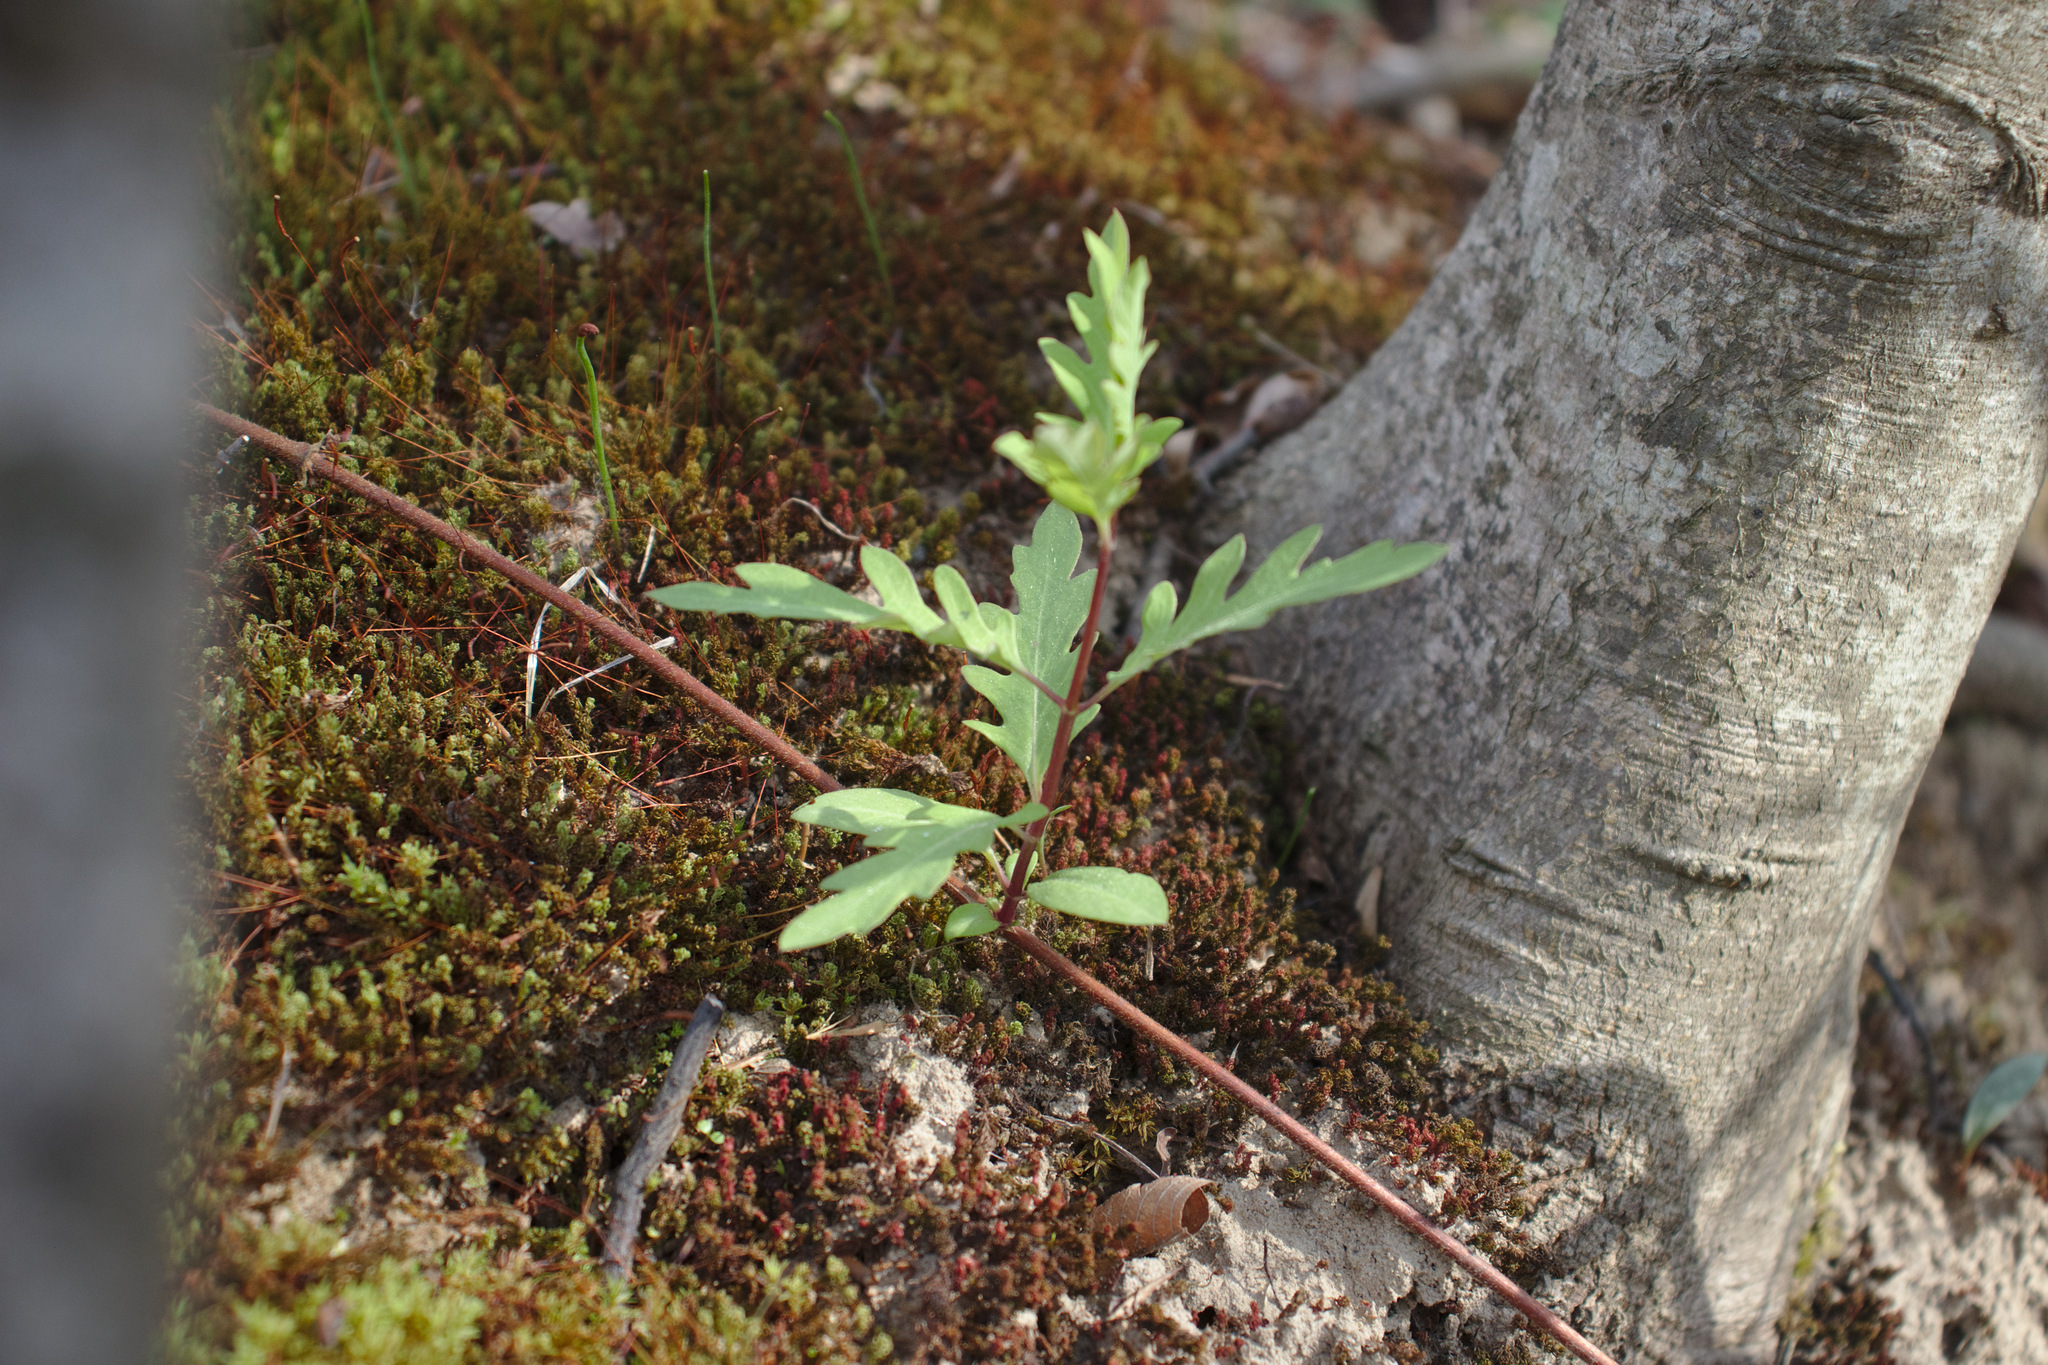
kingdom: Plantae
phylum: Tracheophyta
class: Magnoliopsida
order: Dipsacales
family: Caprifoliaceae
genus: Lonicera
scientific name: Lonicera japonica
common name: Japanese honeysuckle
